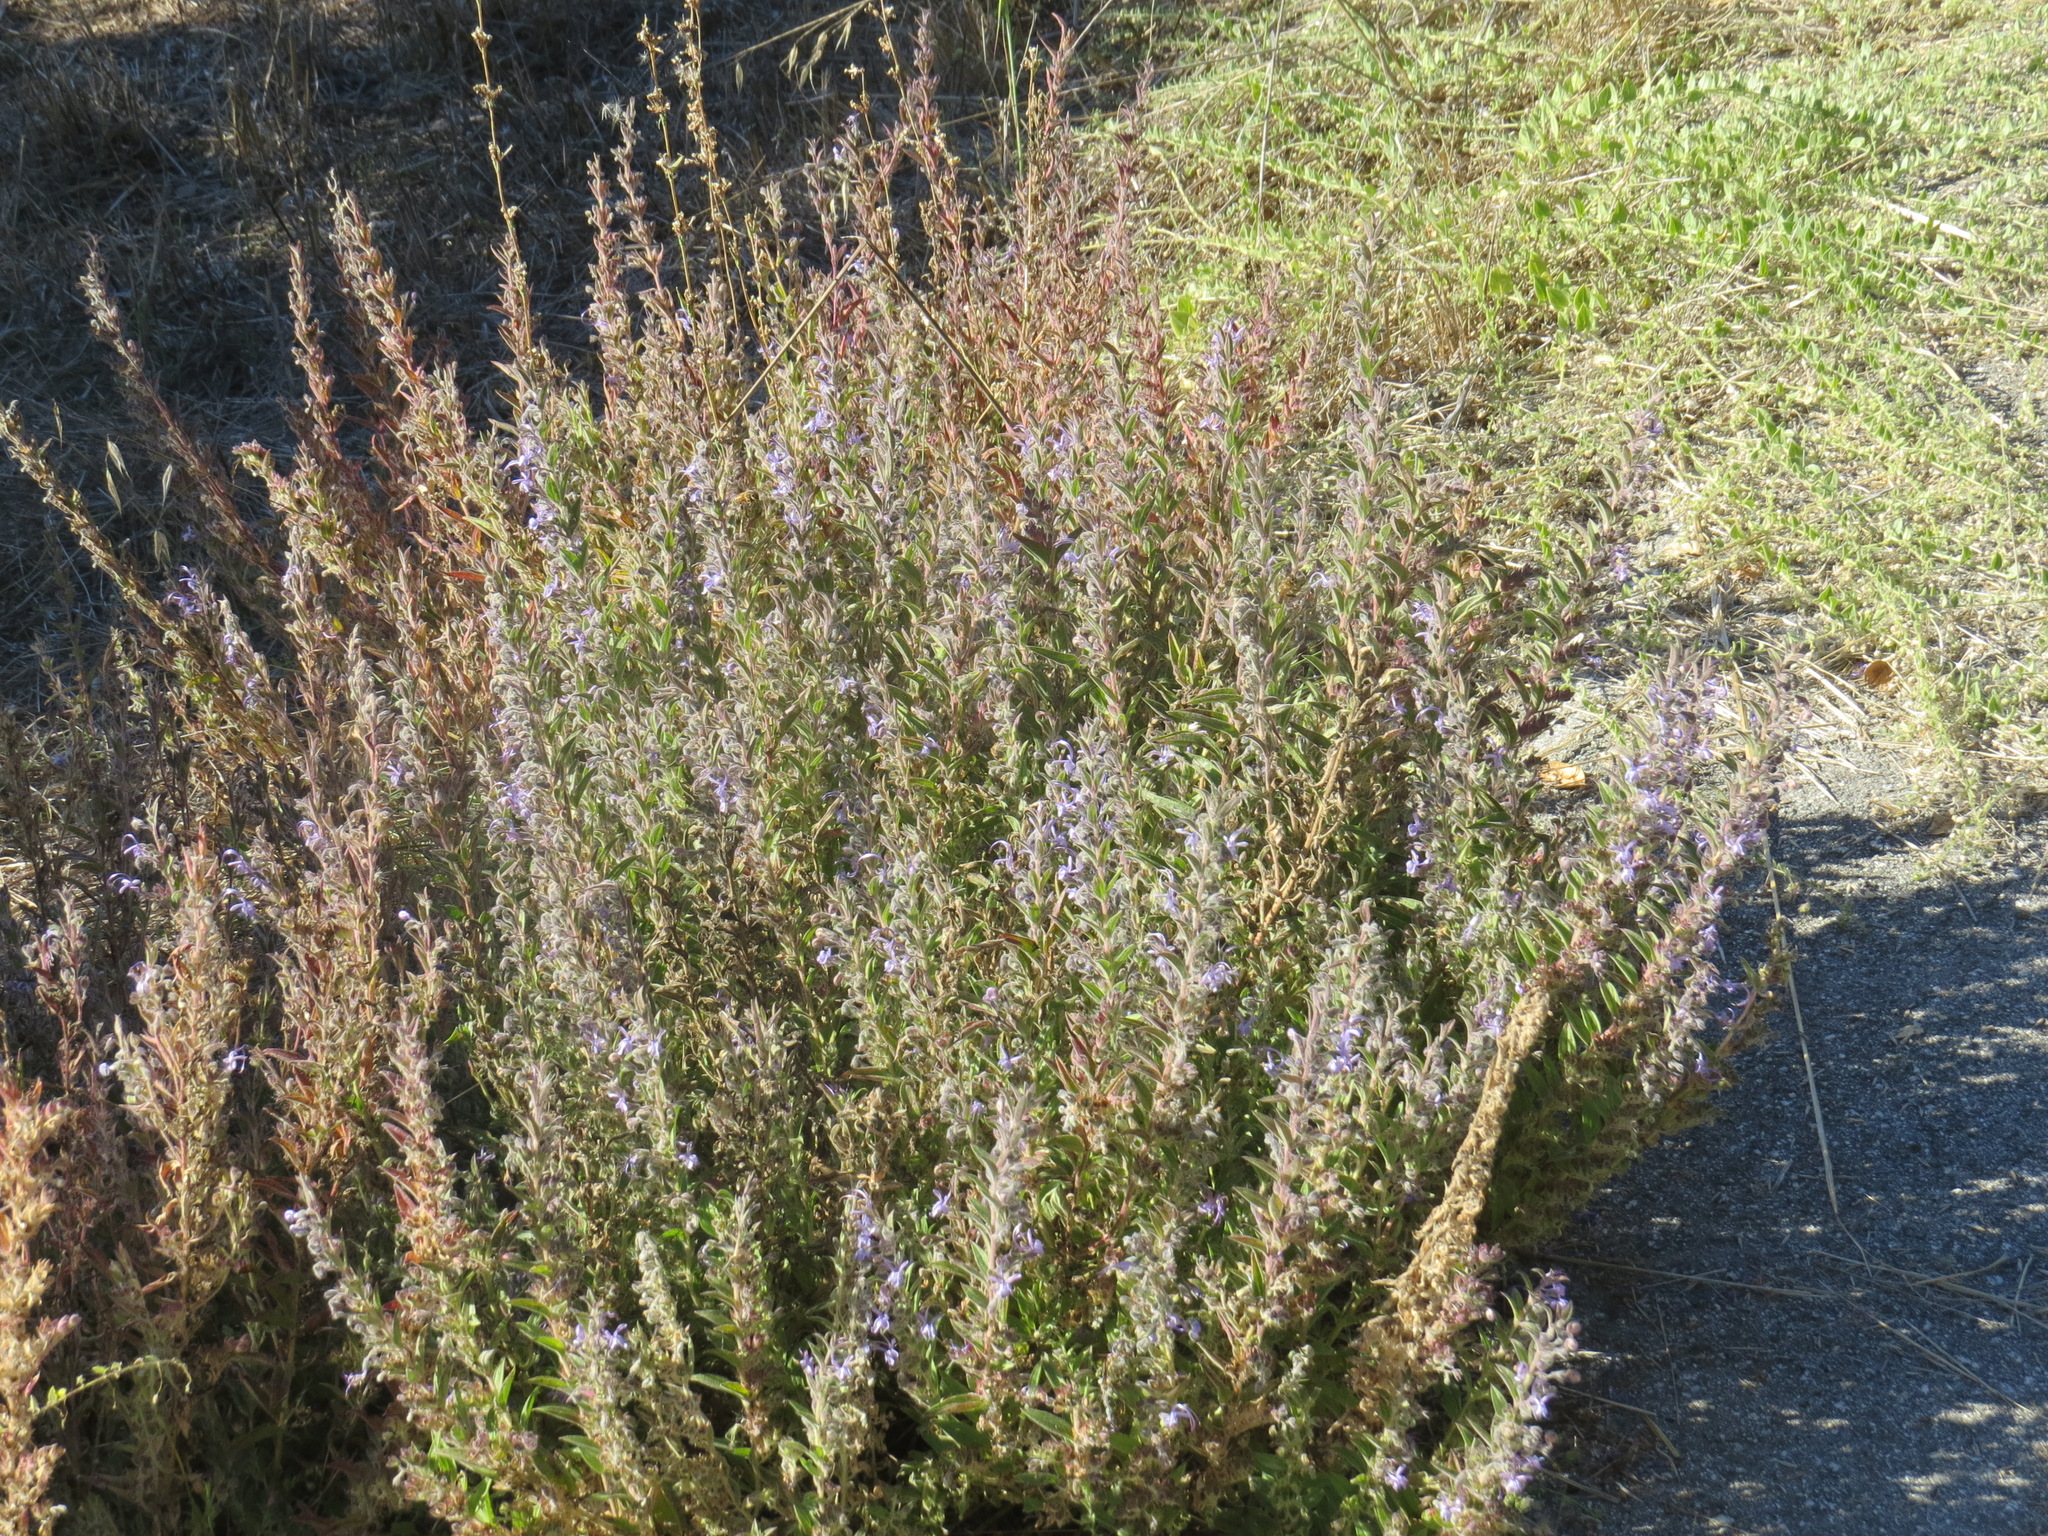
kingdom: Plantae
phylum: Tracheophyta
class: Magnoliopsida
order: Lamiales
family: Lamiaceae
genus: Trichostema
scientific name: Trichostema lanceolatum
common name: Vinegar-weed
